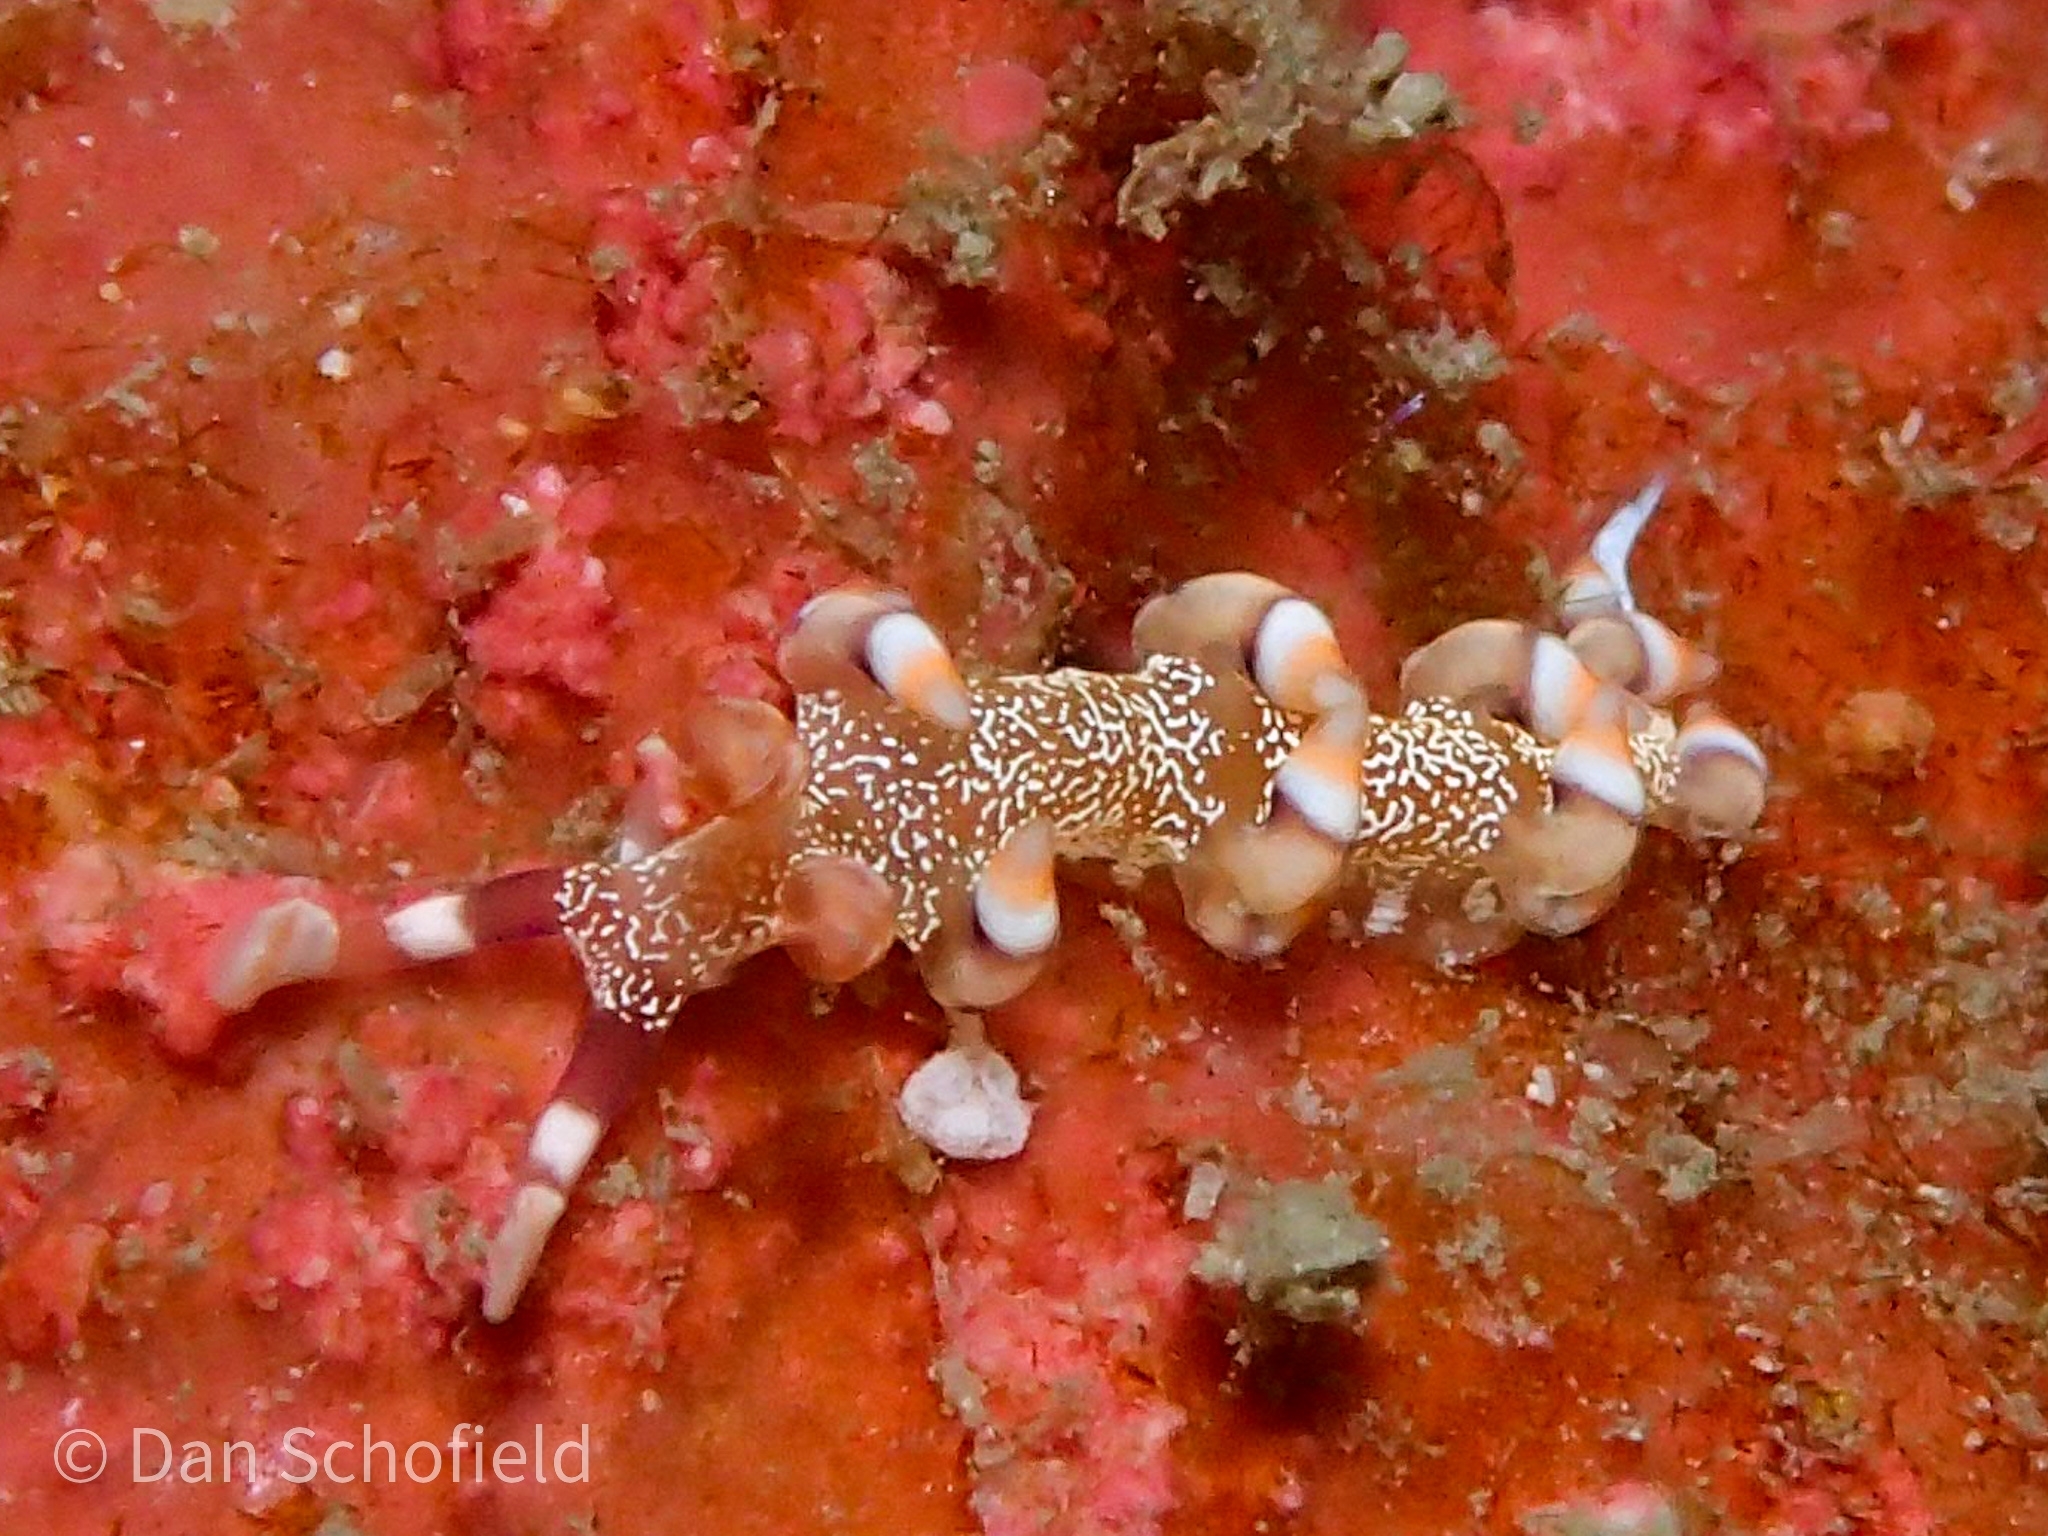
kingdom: Animalia
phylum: Mollusca
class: Gastropoda
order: Nudibranchia
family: Samlidae
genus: Samla
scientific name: Samla riwo
